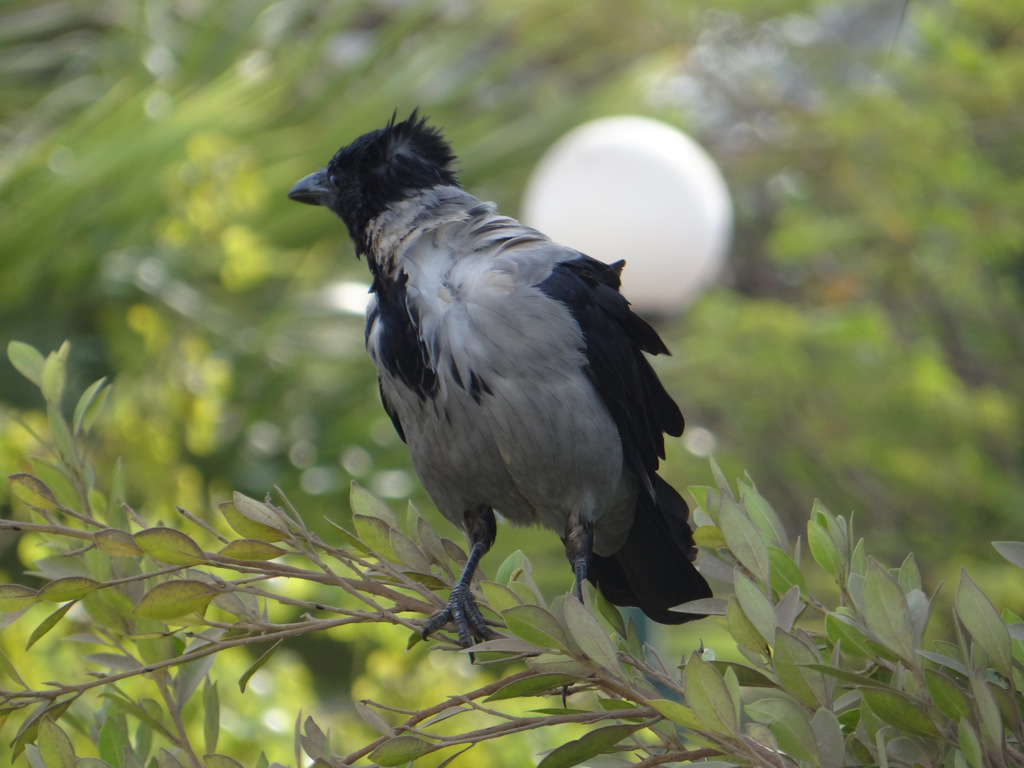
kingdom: Animalia
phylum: Chordata
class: Aves
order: Passeriformes
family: Corvidae
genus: Corvus
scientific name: Corvus cornix
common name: Hooded crow
